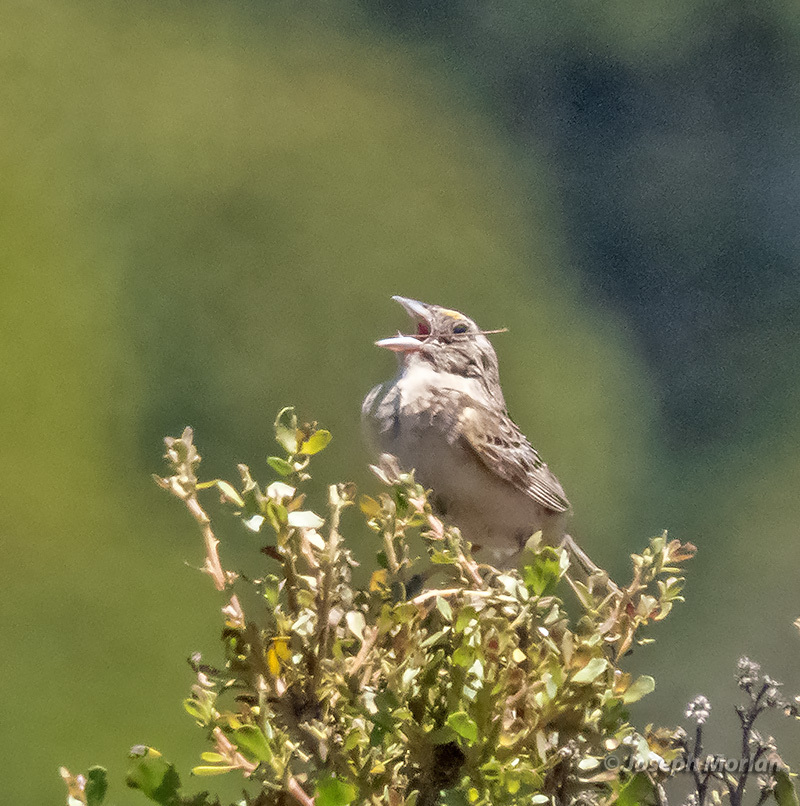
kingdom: Animalia
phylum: Chordata
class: Aves
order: Passeriformes
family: Passerellidae
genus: Ammodramus
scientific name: Ammodramus savannarum
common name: Grasshopper sparrow
